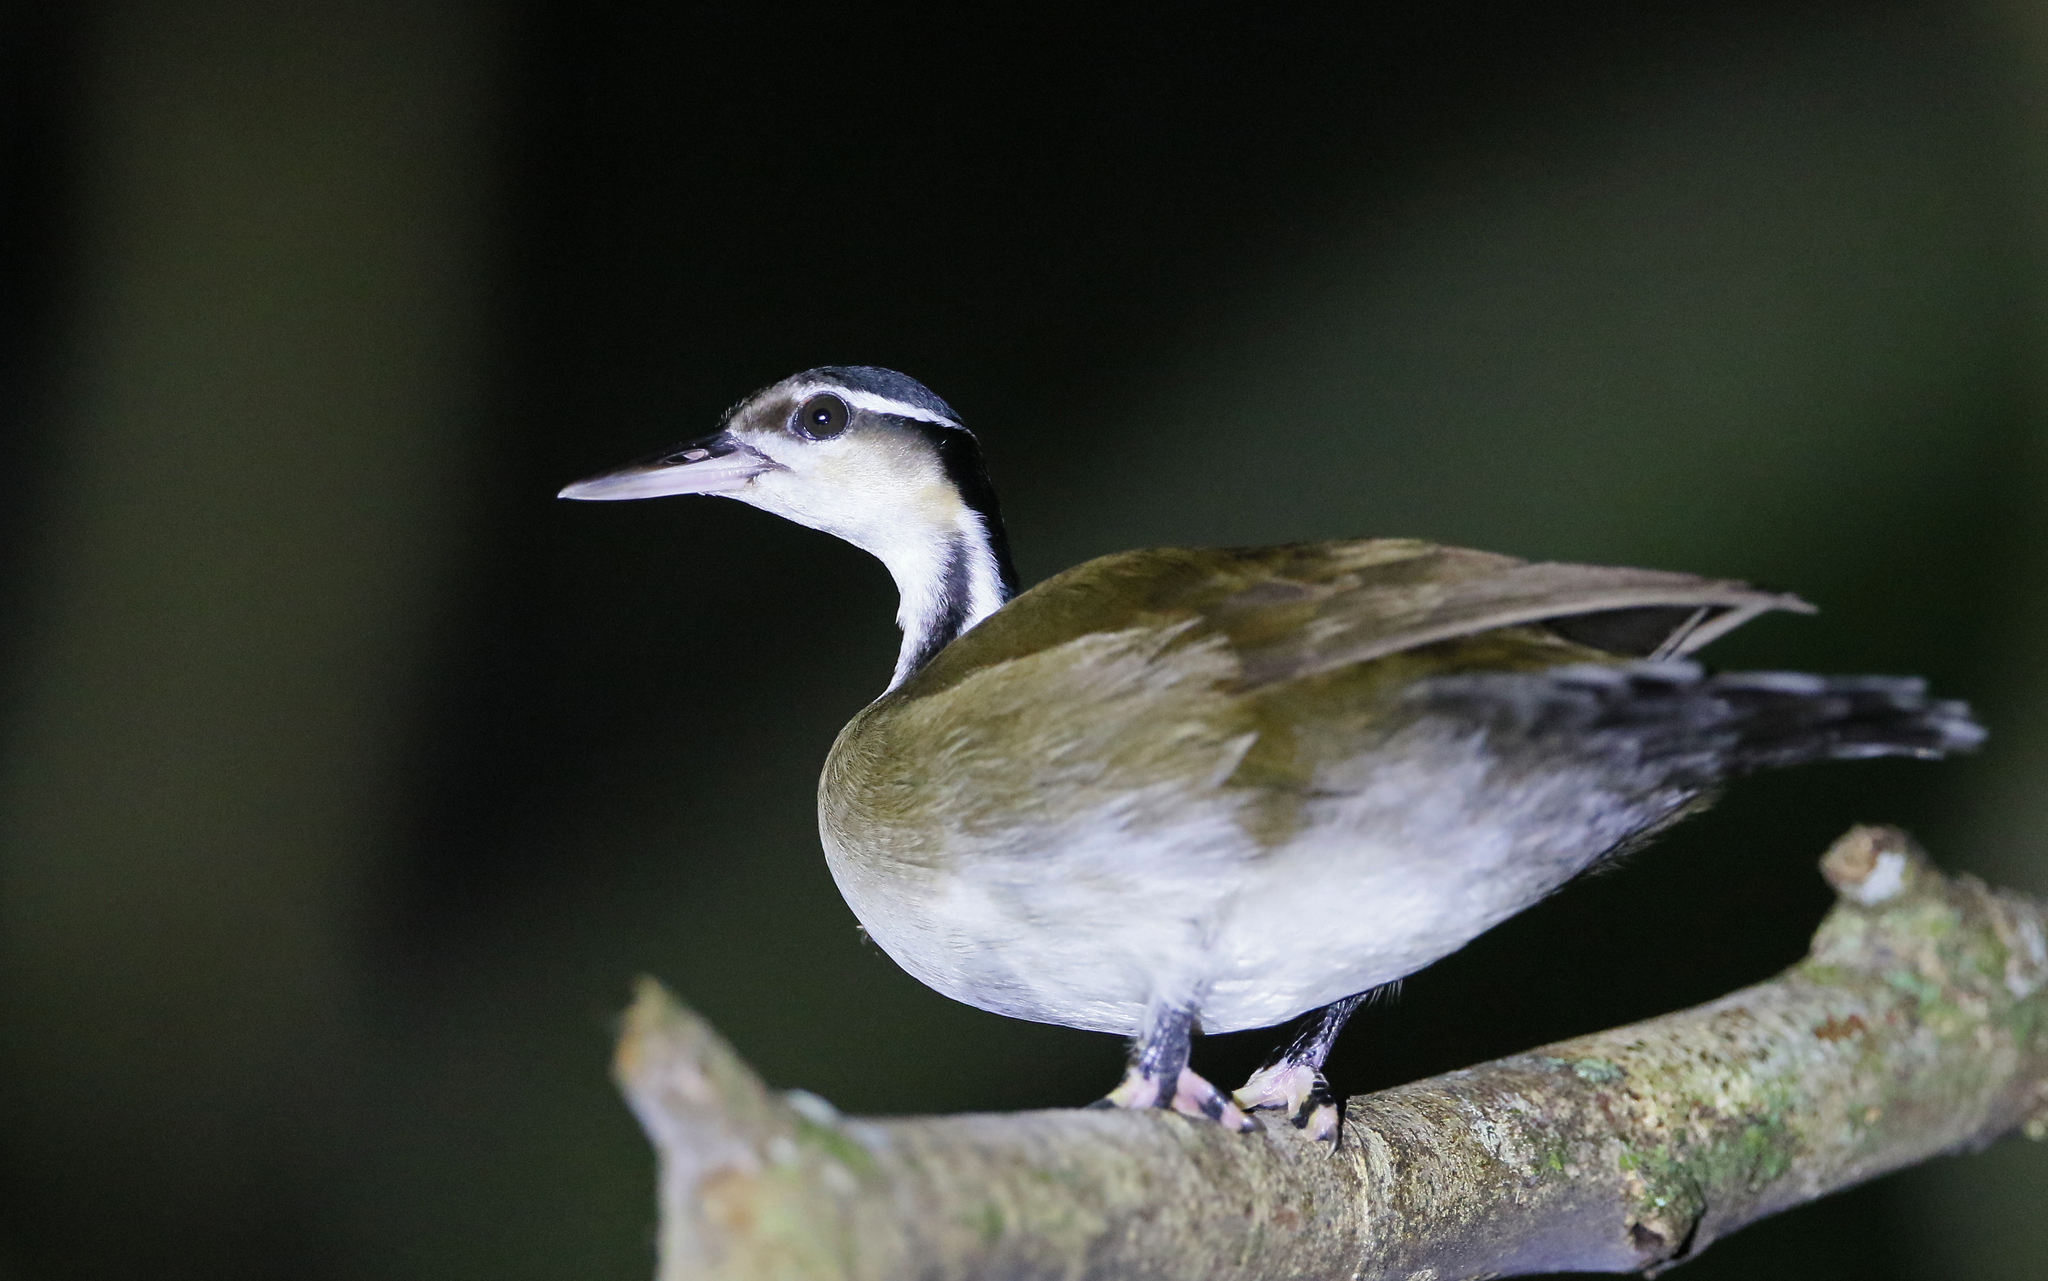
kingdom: Animalia
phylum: Chordata
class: Aves
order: Gruiformes
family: Heliornithidae
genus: Heliornis
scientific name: Heliornis fulica
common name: Sungrebe
